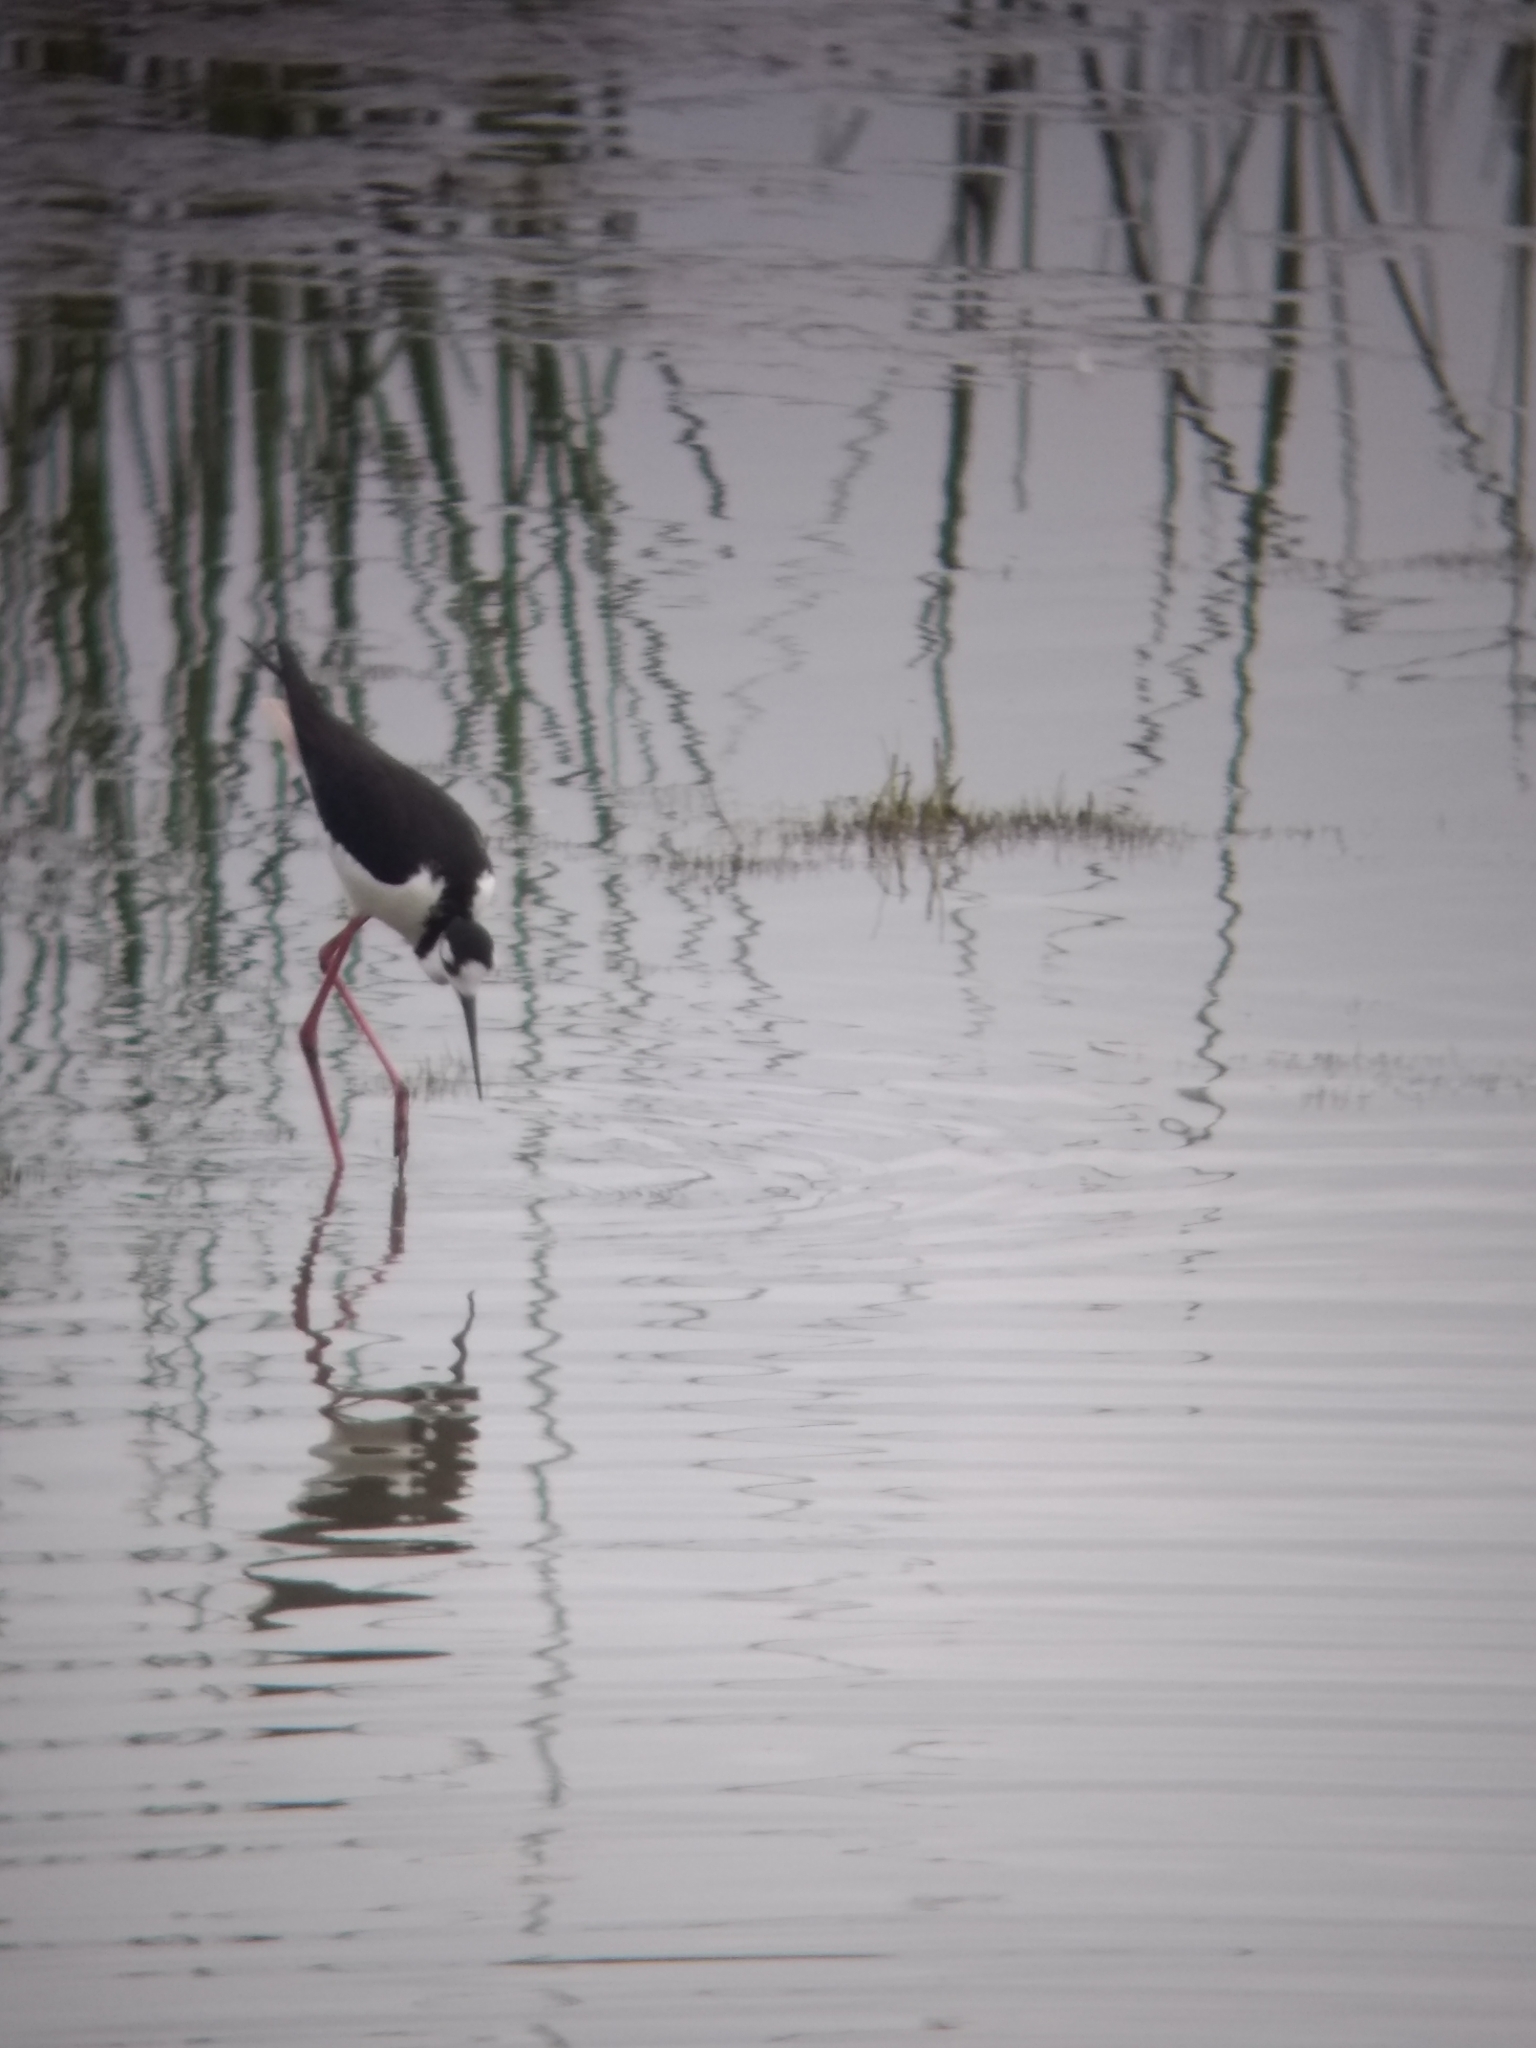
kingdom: Animalia
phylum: Chordata
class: Aves
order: Charadriiformes
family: Recurvirostridae
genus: Himantopus
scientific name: Himantopus mexicanus
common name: Black-necked stilt
